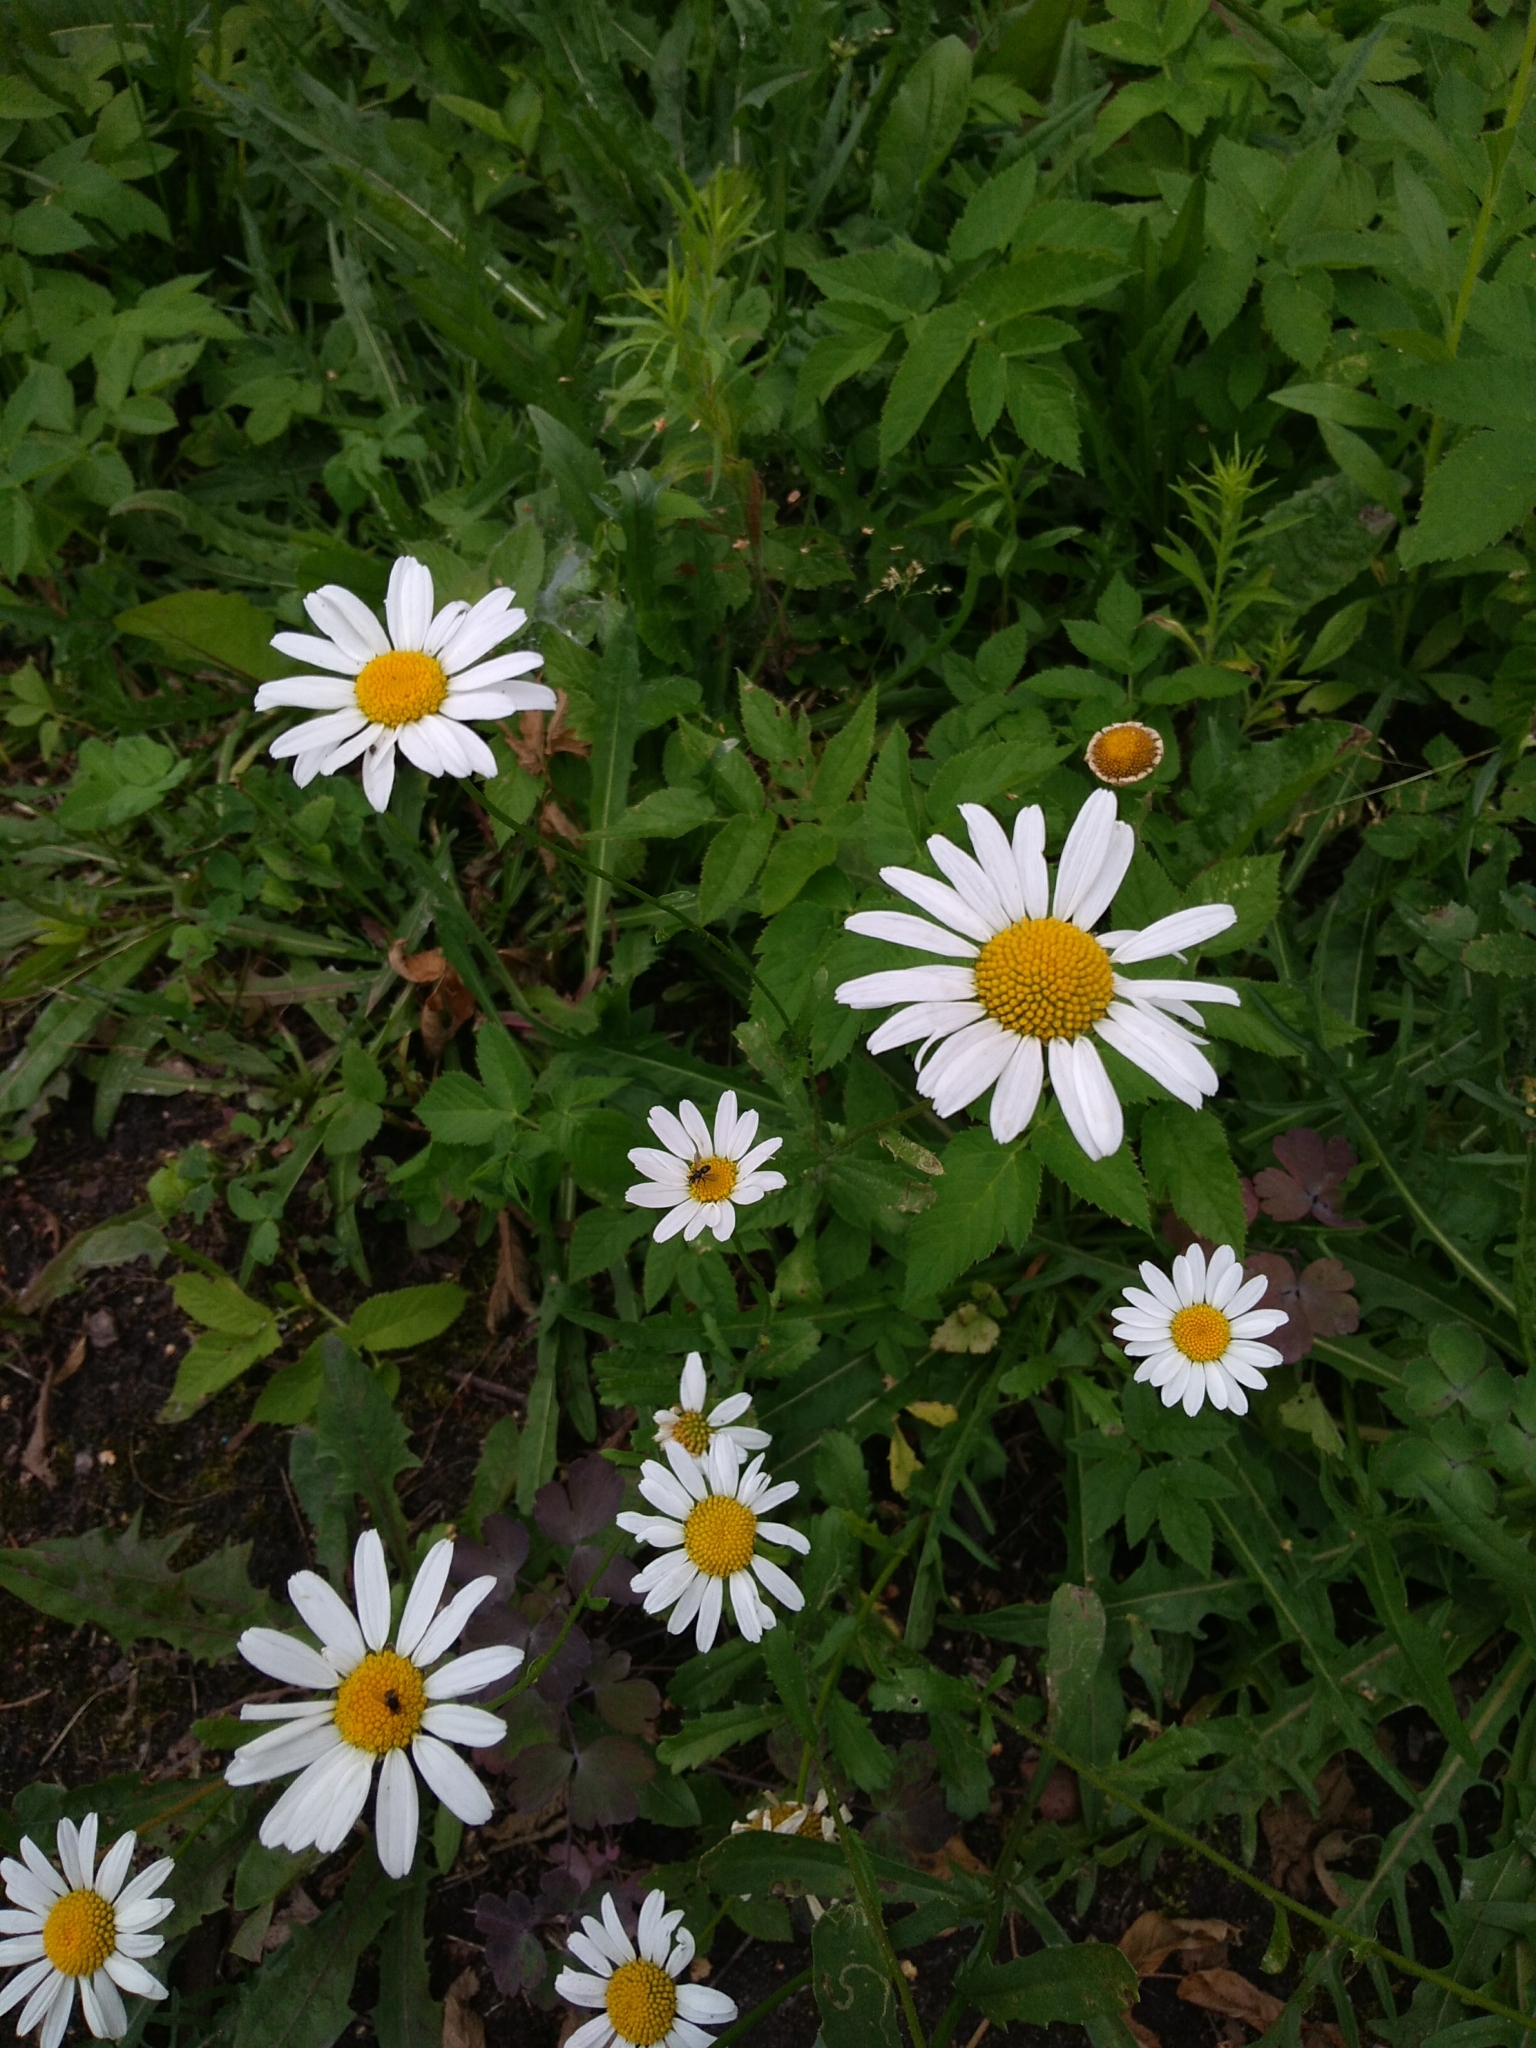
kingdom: Plantae
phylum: Tracheophyta
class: Magnoliopsida
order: Asterales
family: Asteraceae
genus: Leucanthemum
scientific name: Leucanthemum vulgare
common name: Oxeye daisy
